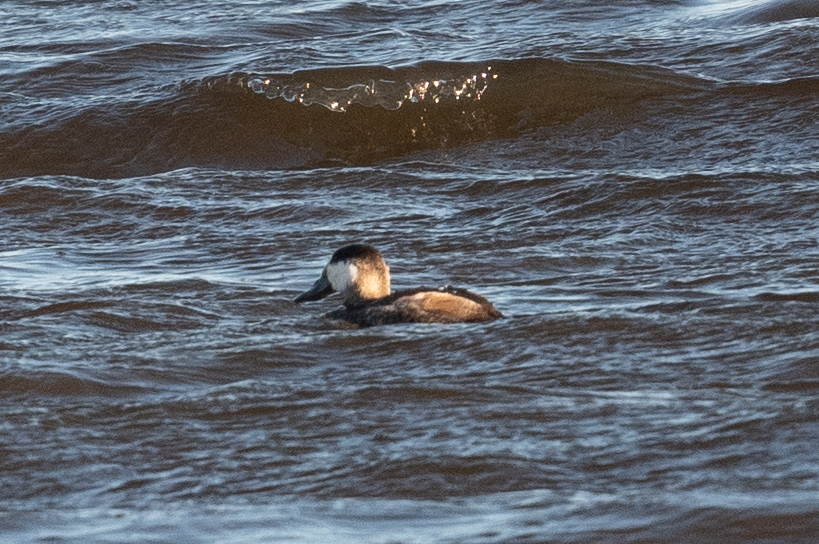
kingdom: Animalia
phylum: Chordata
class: Aves
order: Anseriformes
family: Anatidae
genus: Oxyura
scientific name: Oxyura jamaicensis
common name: Ruddy duck
